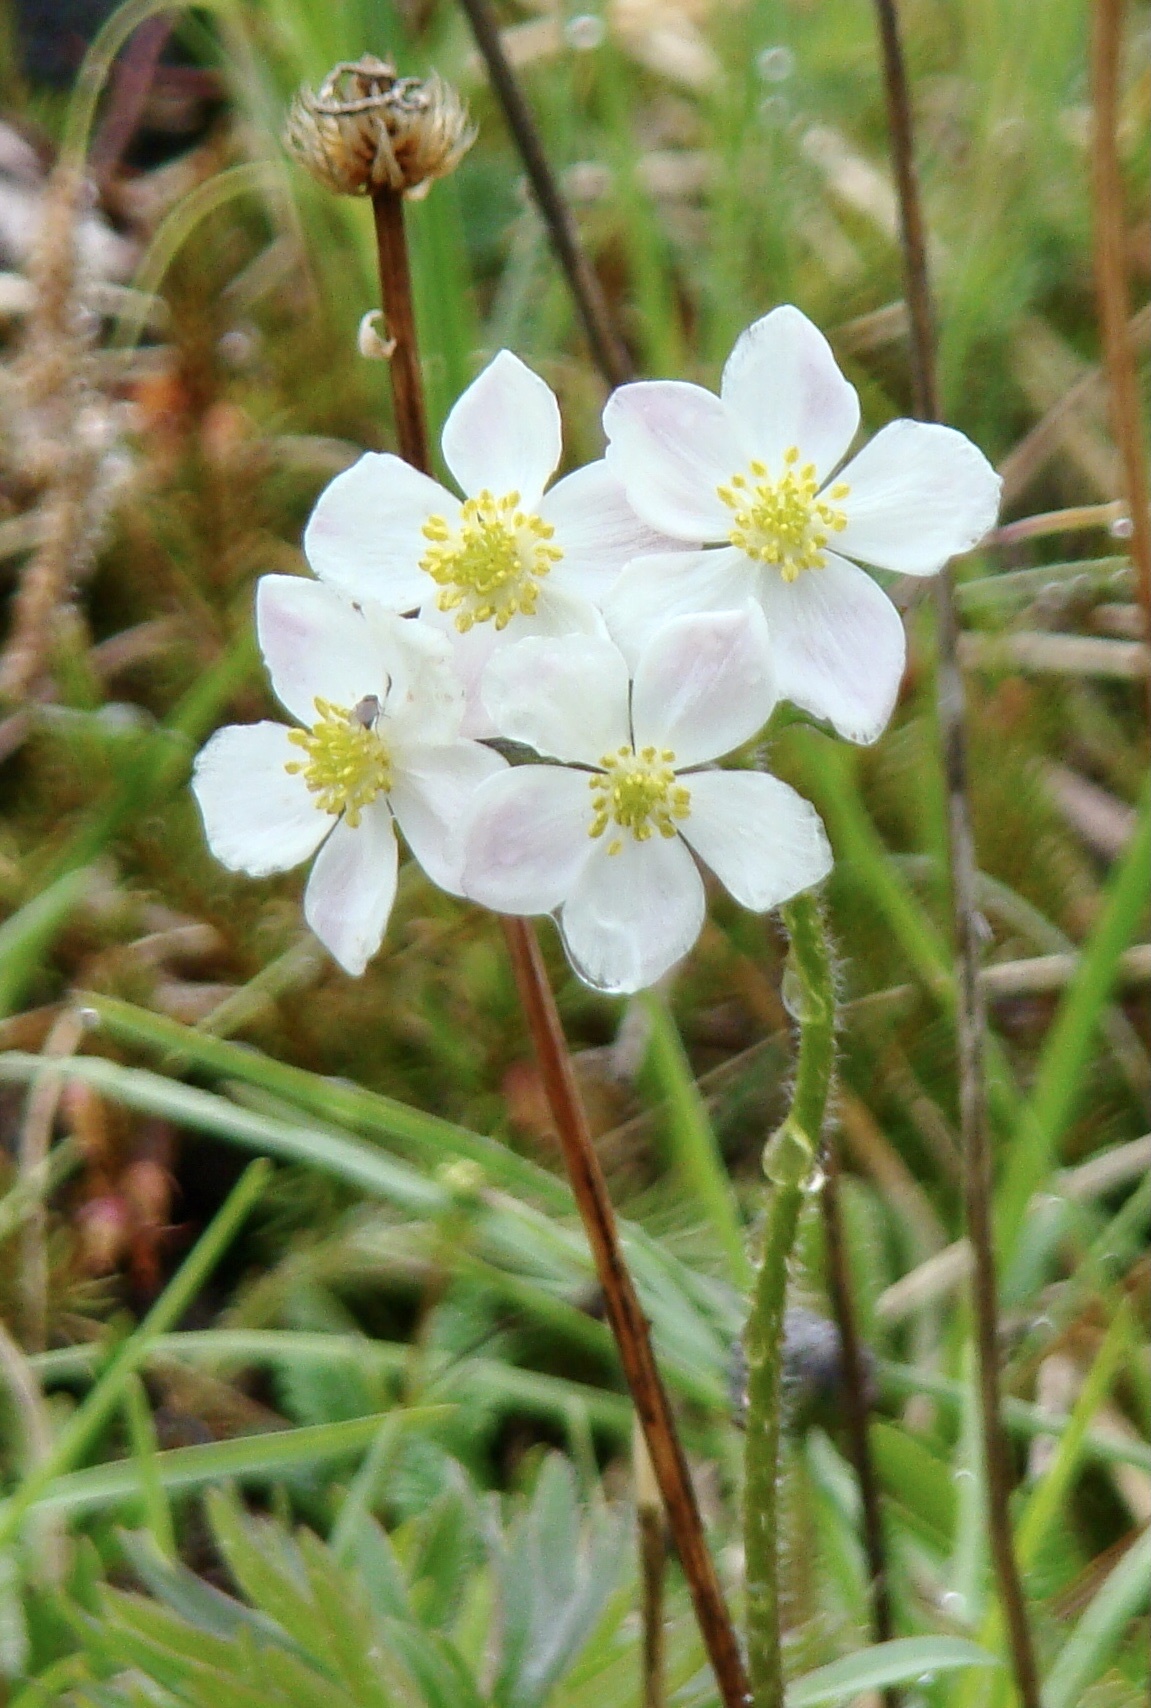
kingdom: Plantae
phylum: Tracheophyta
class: Magnoliopsida
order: Ranunculales
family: Ranunculaceae
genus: Anemonastrum
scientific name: Anemonastrum narcissiflorum
